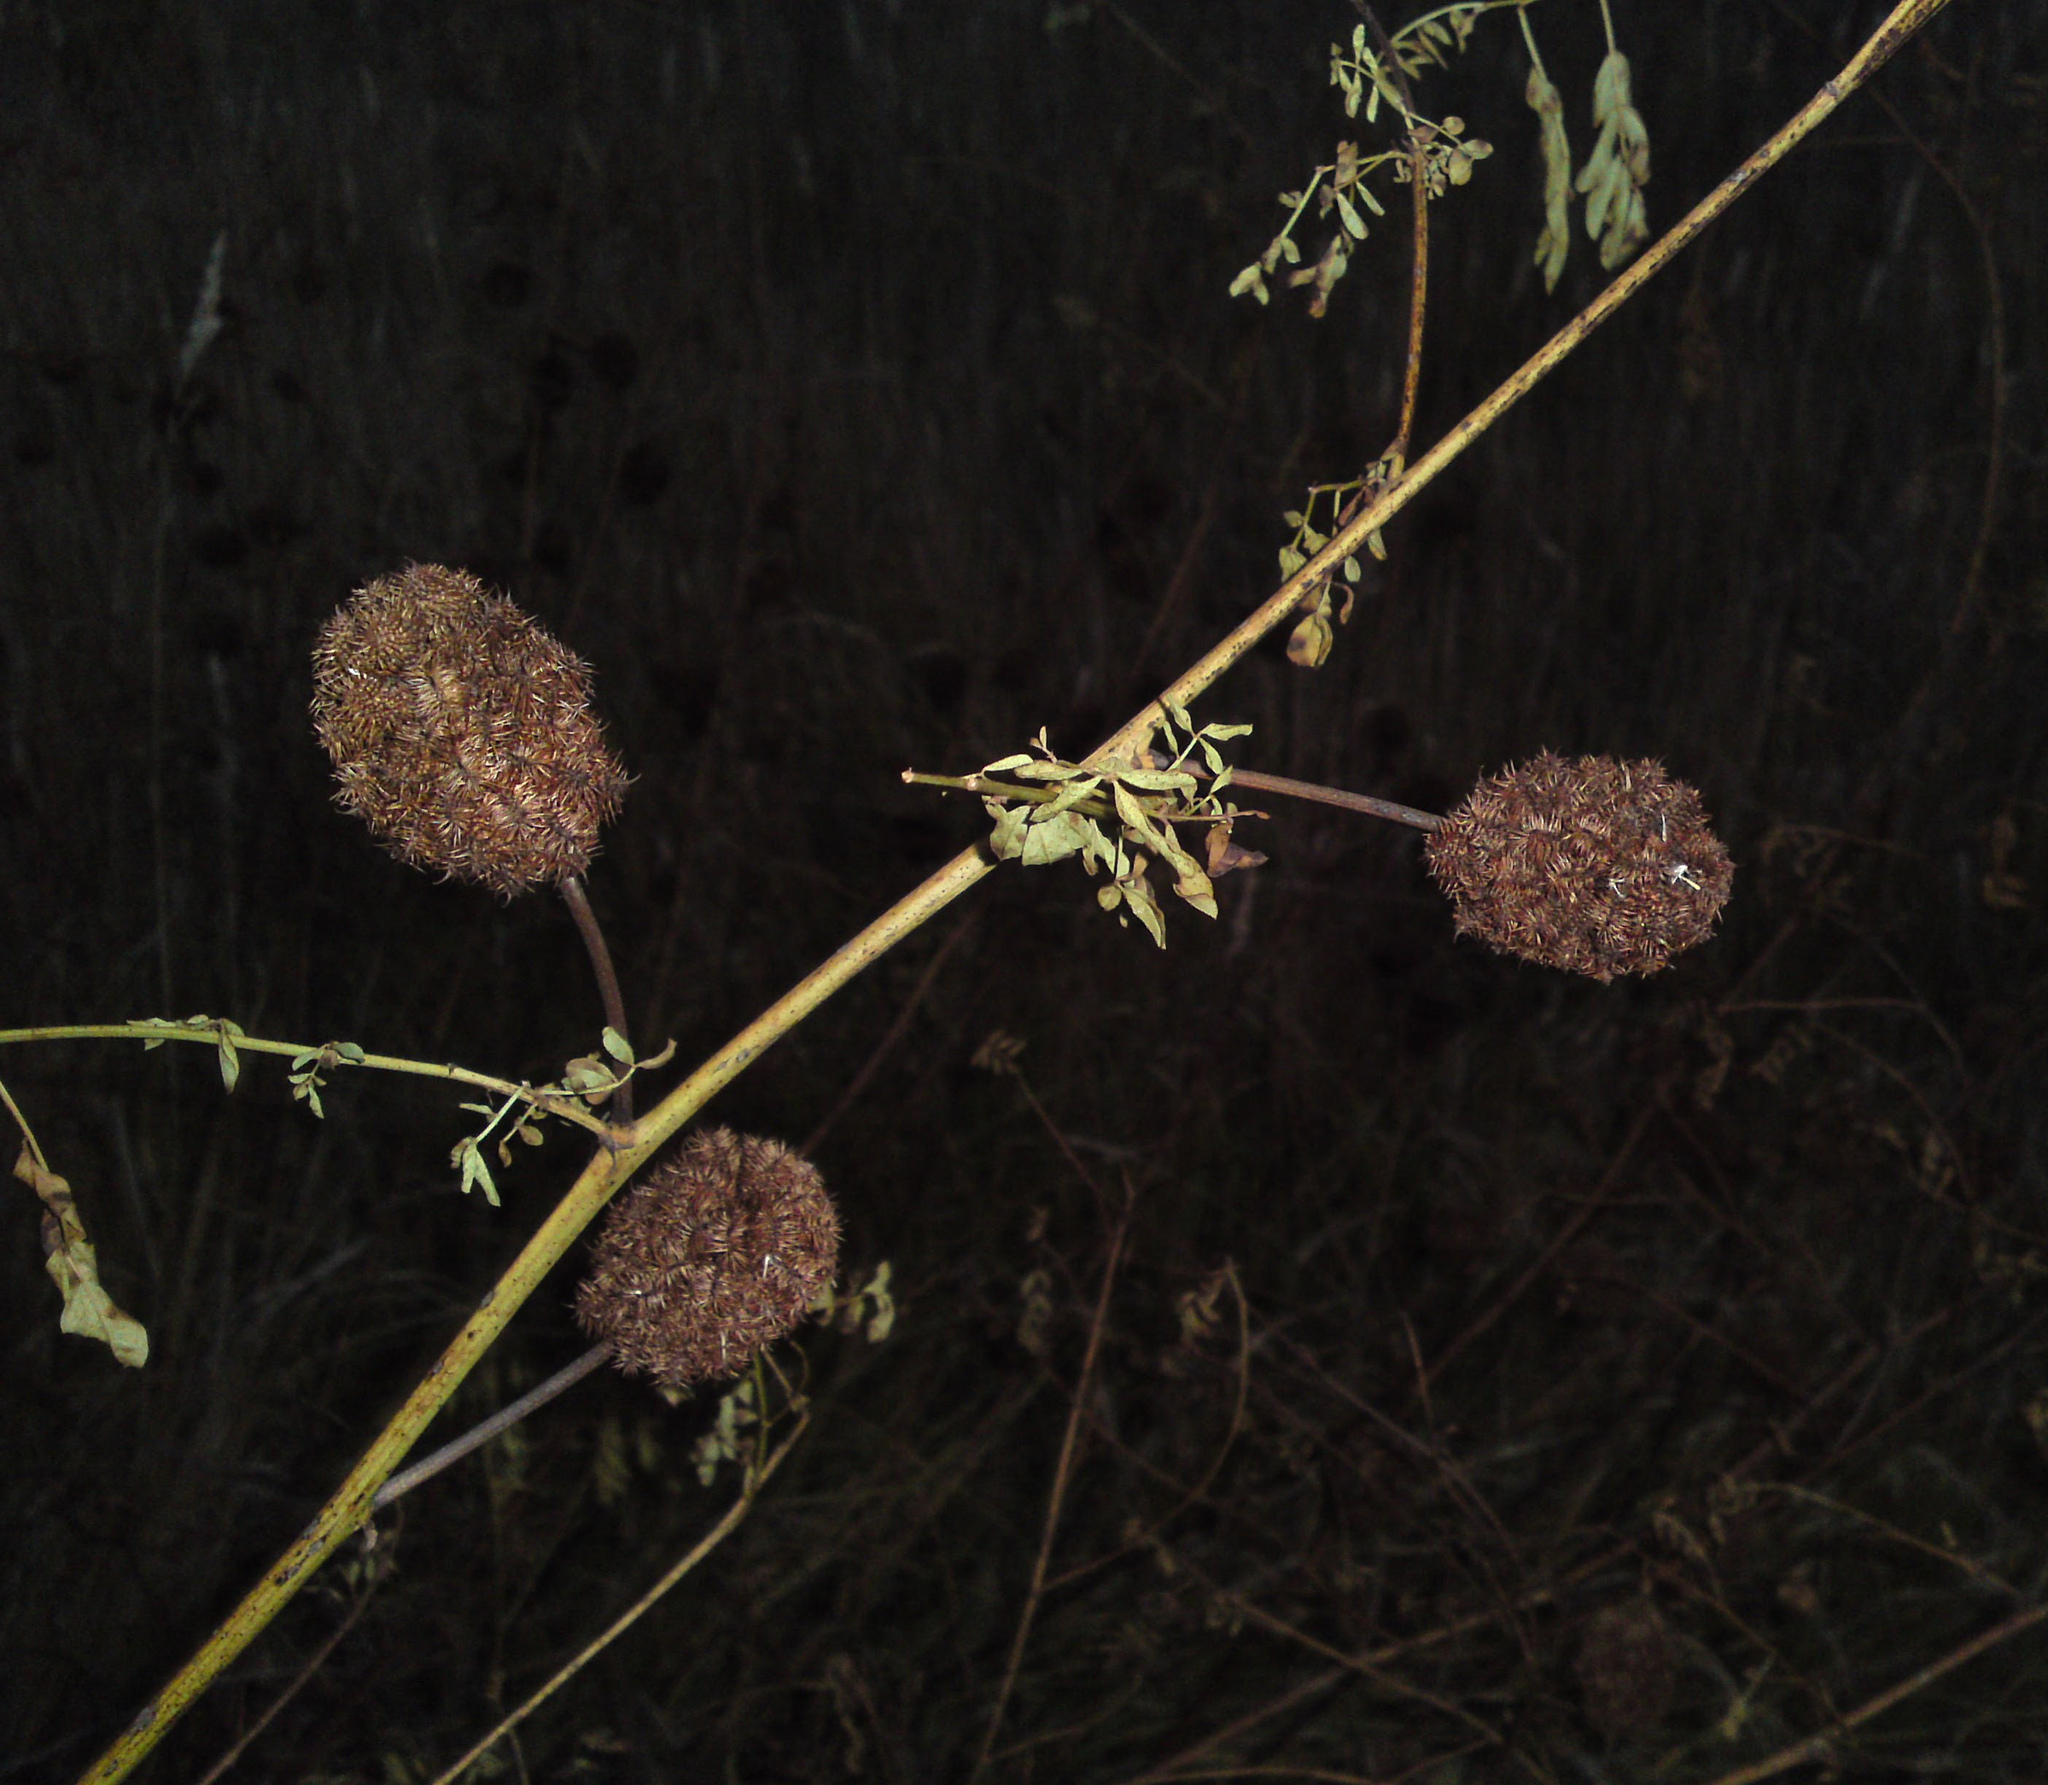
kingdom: Plantae
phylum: Tracheophyta
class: Magnoliopsida
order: Fabales
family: Fabaceae
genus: Glycyrrhiza
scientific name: Glycyrrhiza echinata
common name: German liquorice
